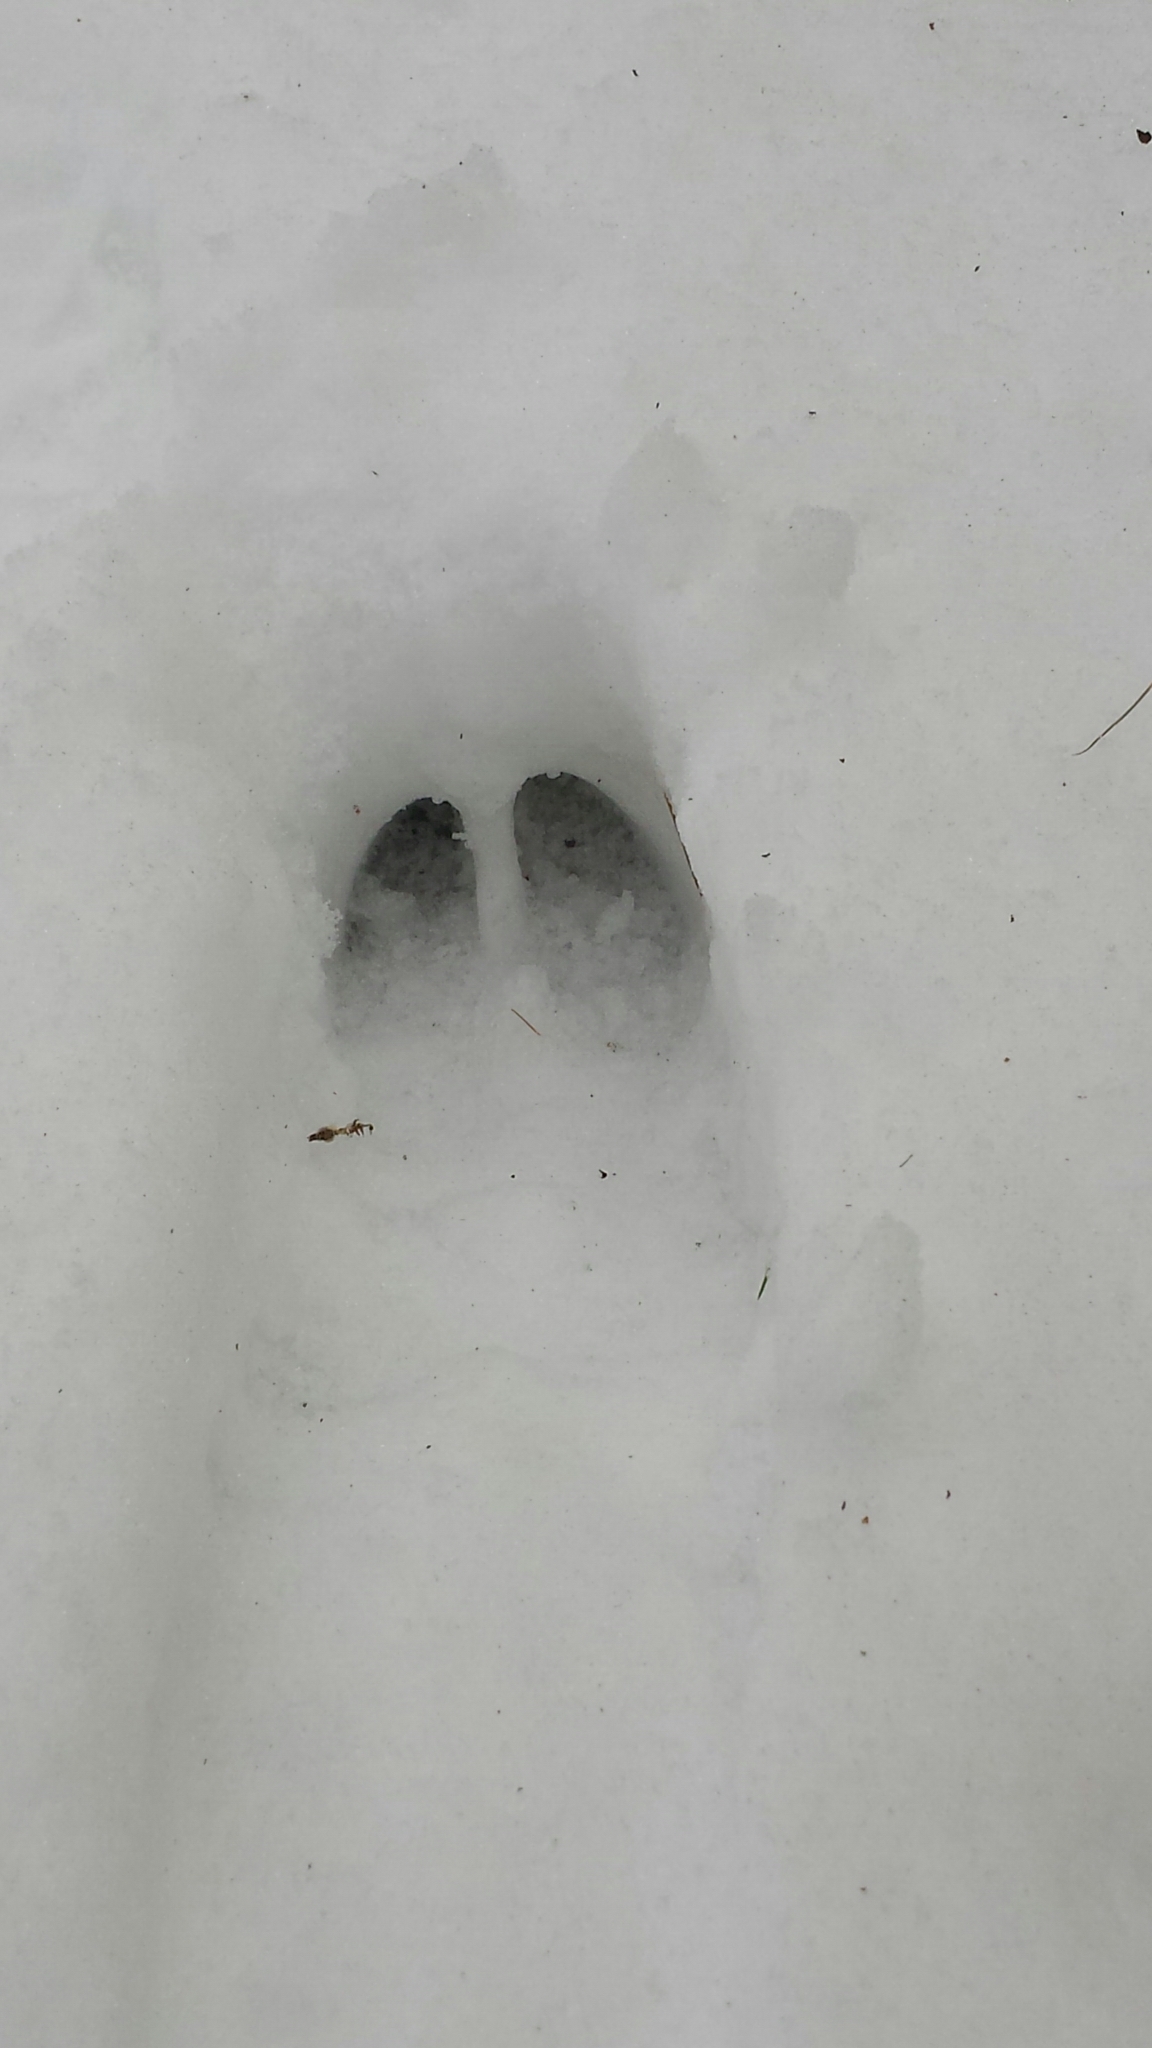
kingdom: Animalia
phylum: Chordata
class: Mammalia
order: Artiodactyla
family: Cervidae
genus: Odocoileus
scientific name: Odocoileus virginianus
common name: White-tailed deer
